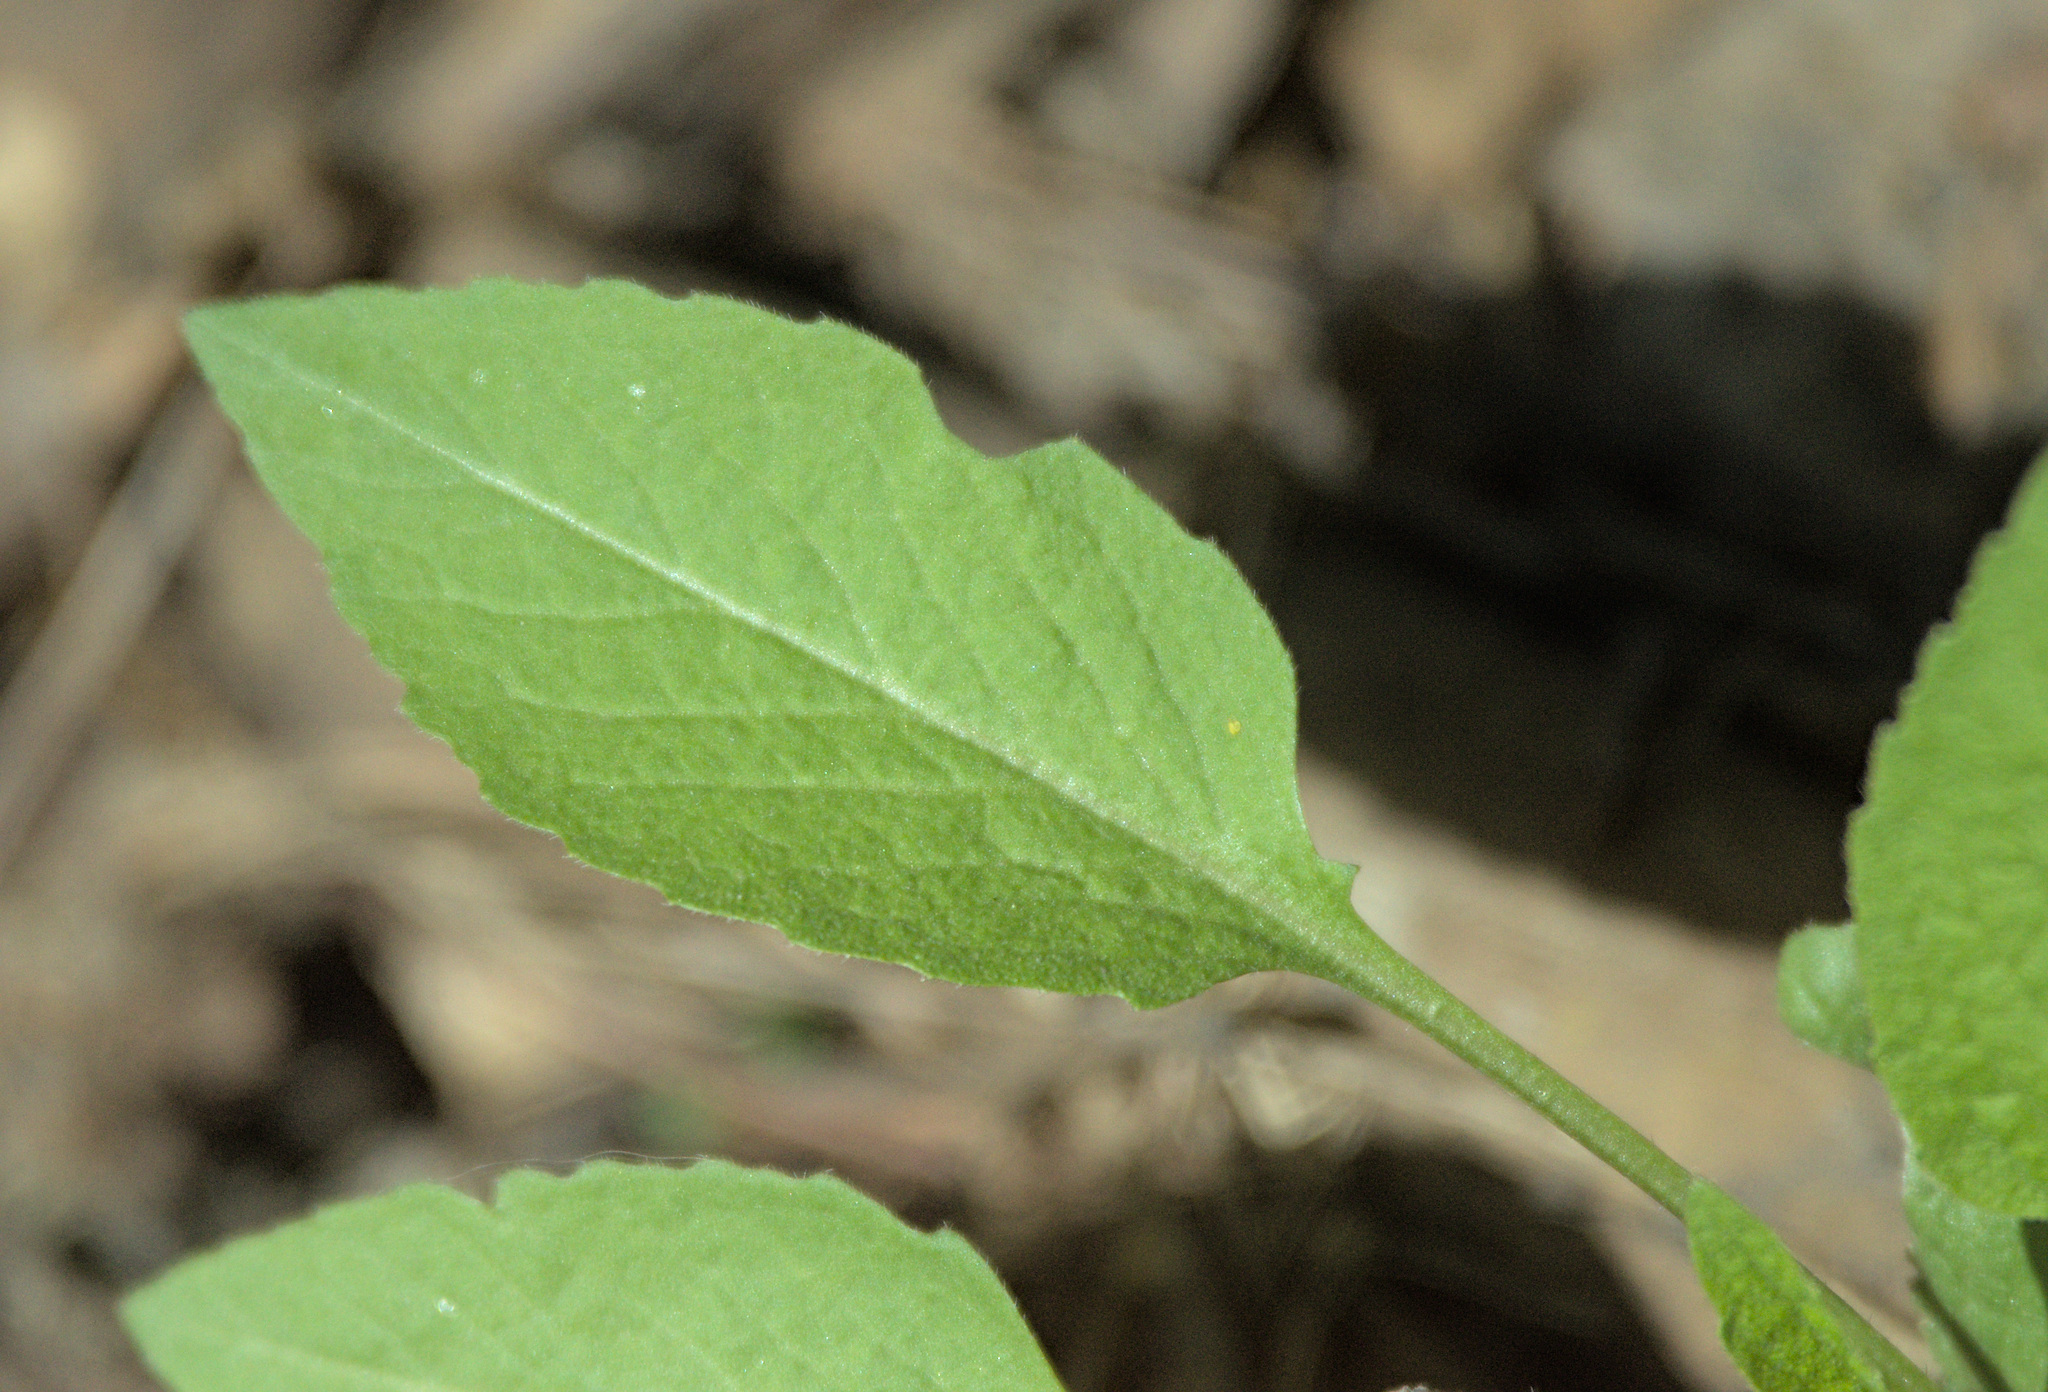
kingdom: Plantae
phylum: Tracheophyta
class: Magnoliopsida
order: Brassicales
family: Brassicaceae
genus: Catolobus
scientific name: Catolobus pendulus
